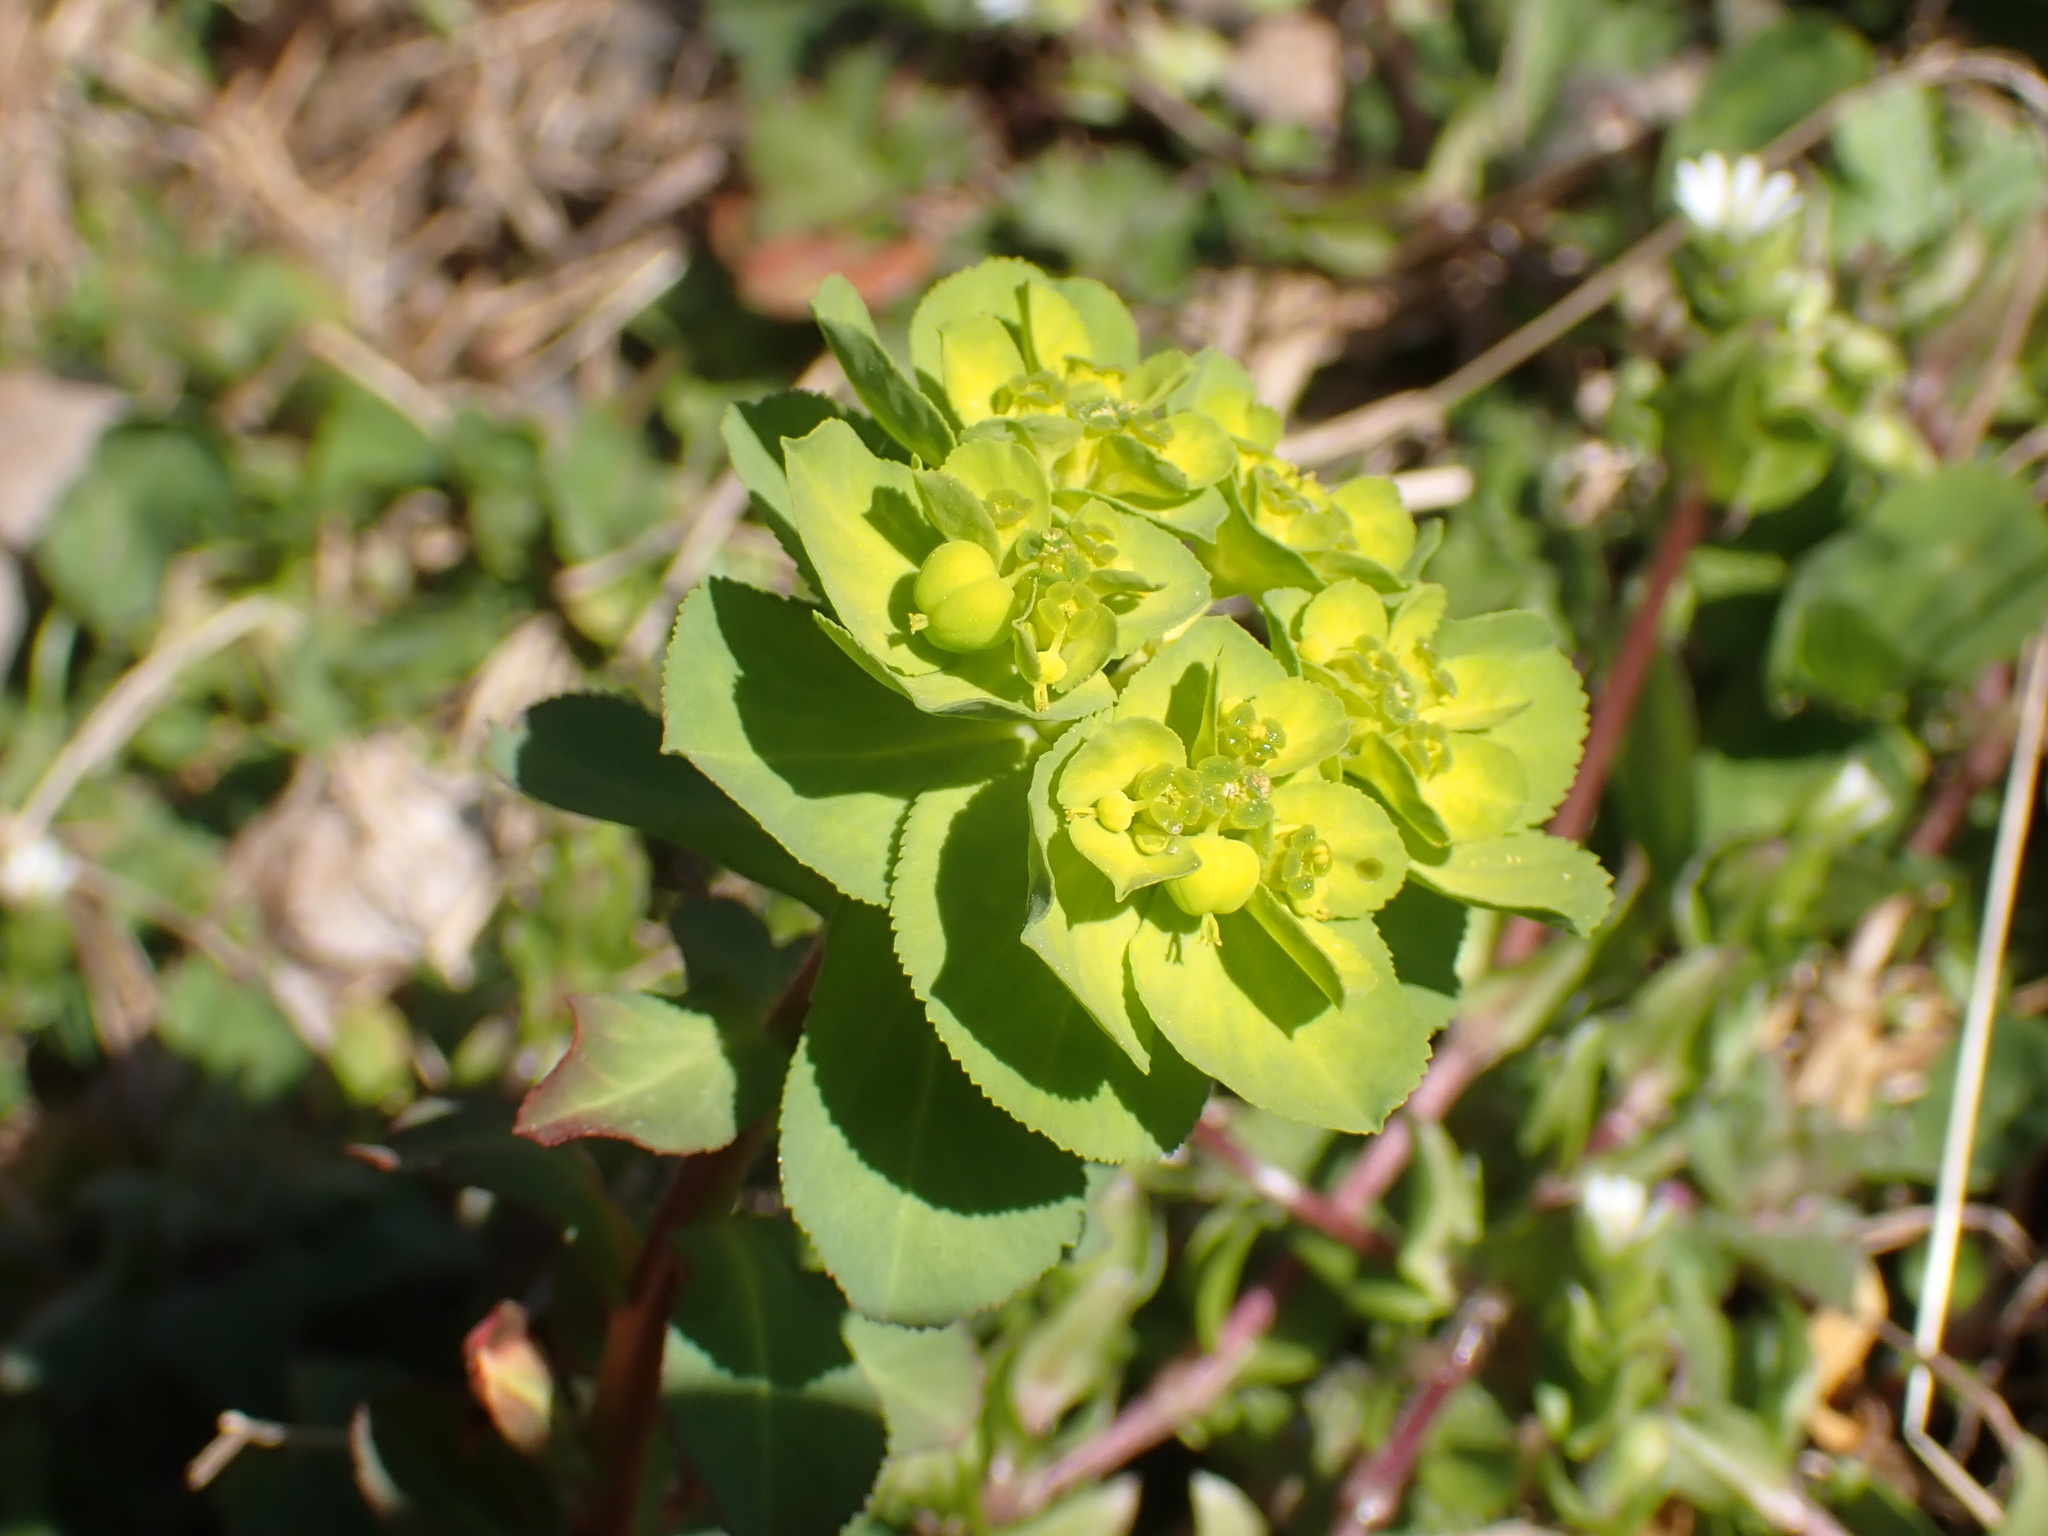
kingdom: Plantae
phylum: Tracheophyta
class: Magnoliopsida
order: Malpighiales
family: Euphorbiaceae
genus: Euphorbia
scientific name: Euphorbia helioscopia
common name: Sun spurge
